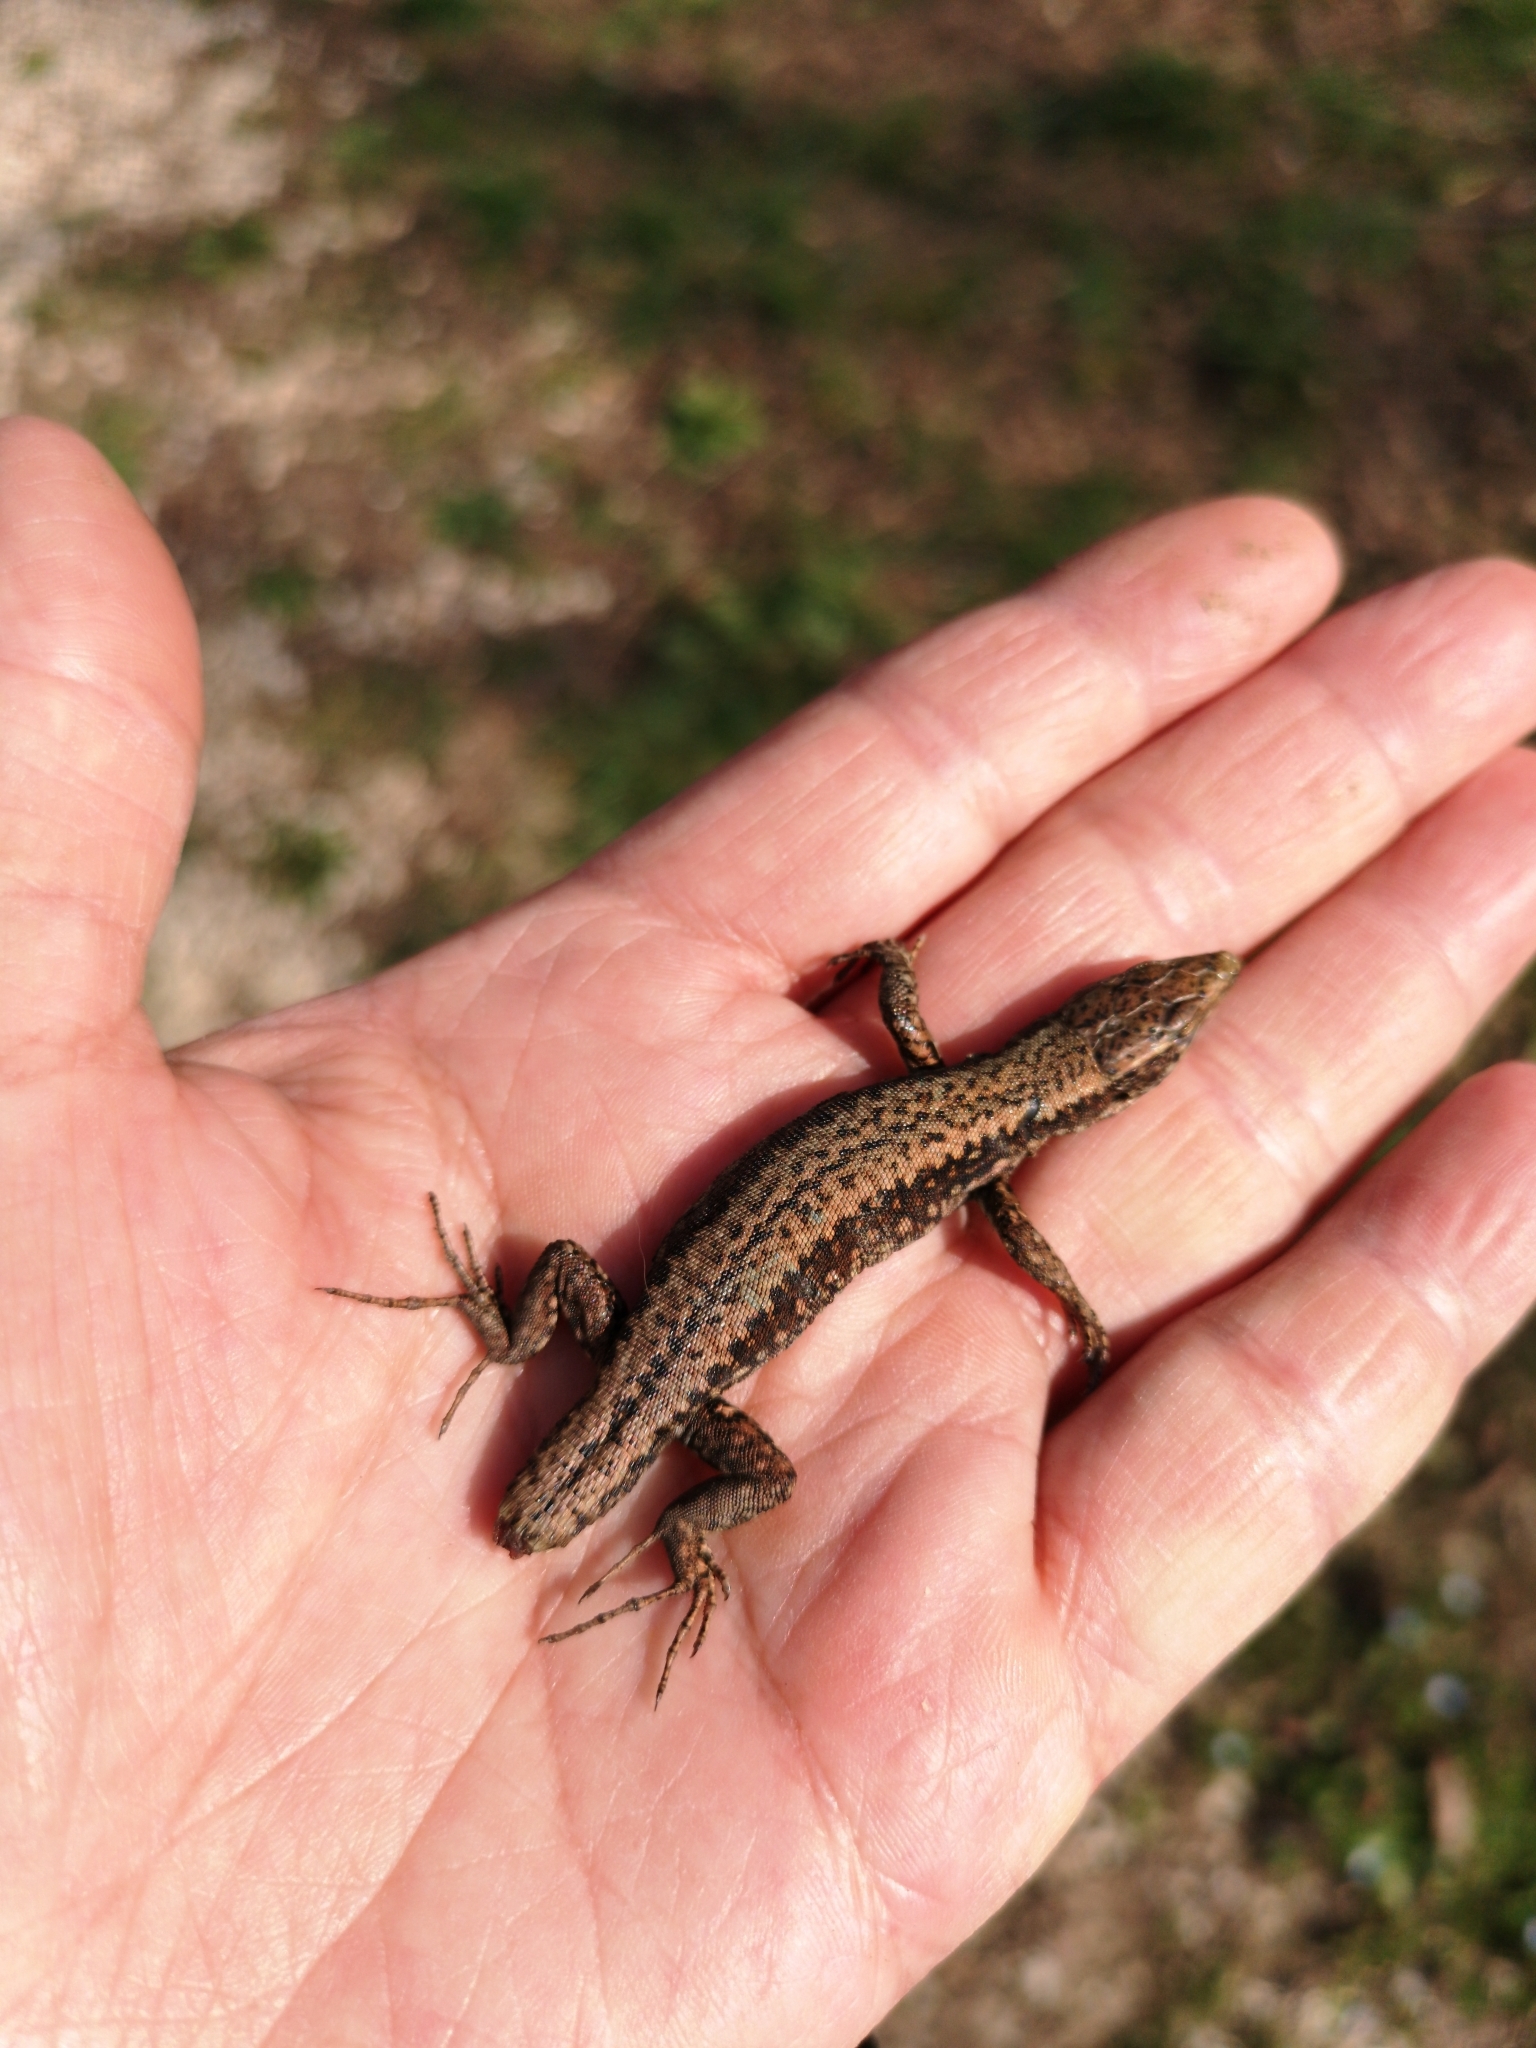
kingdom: Animalia
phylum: Chordata
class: Squamata
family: Lacertidae
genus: Podarcis
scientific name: Podarcis muralis
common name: Common wall lizard
